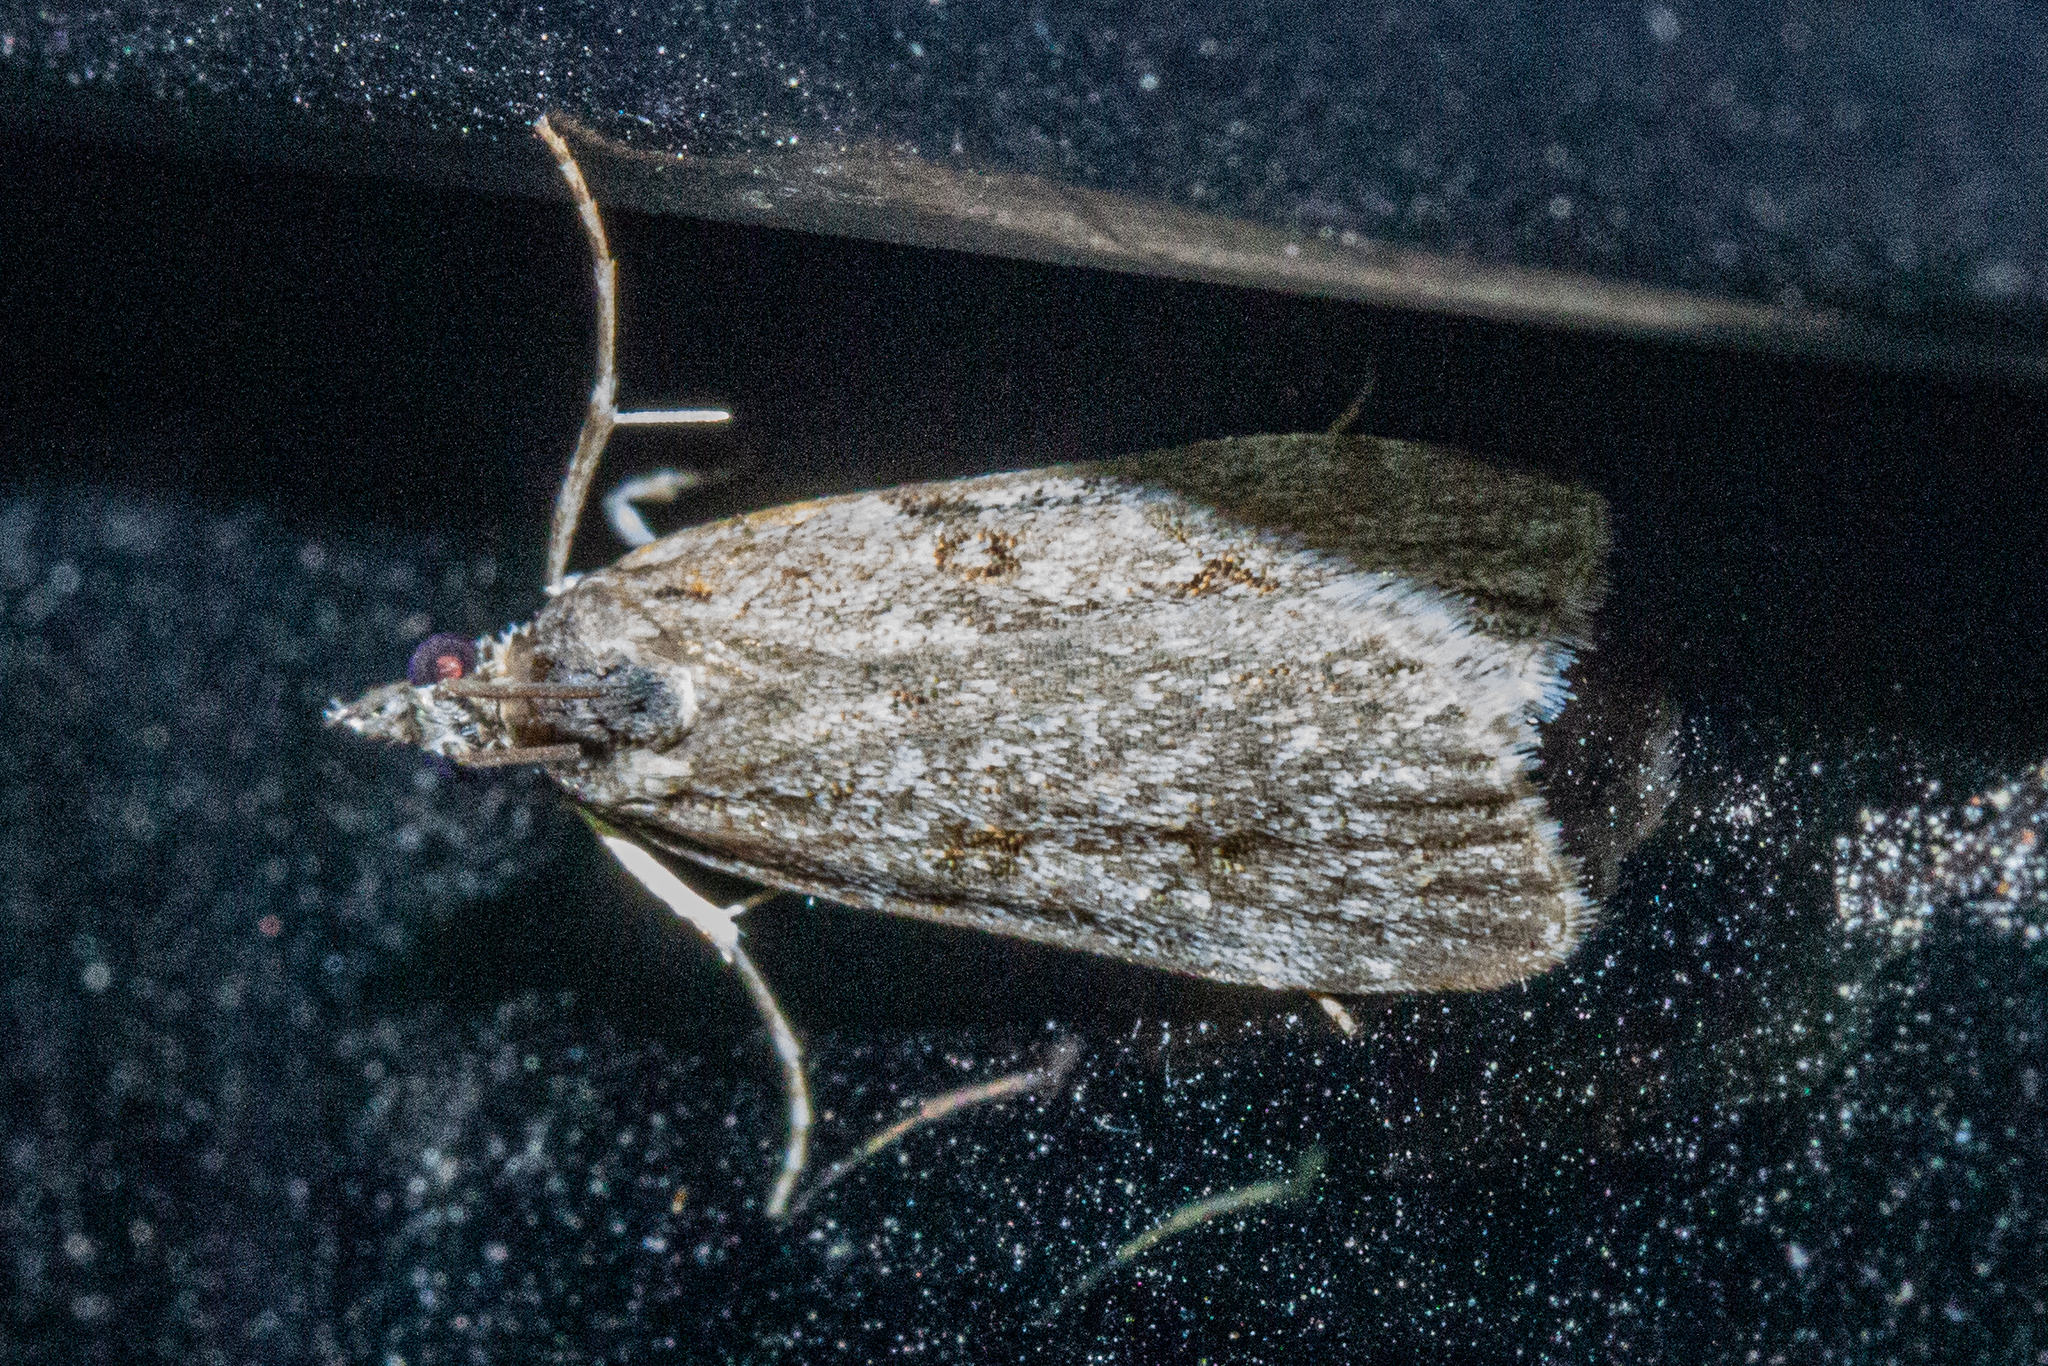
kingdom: Animalia
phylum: Arthropoda
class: Insecta
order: Lepidoptera
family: Crambidae
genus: Eudonia
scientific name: Eudonia cymatias
